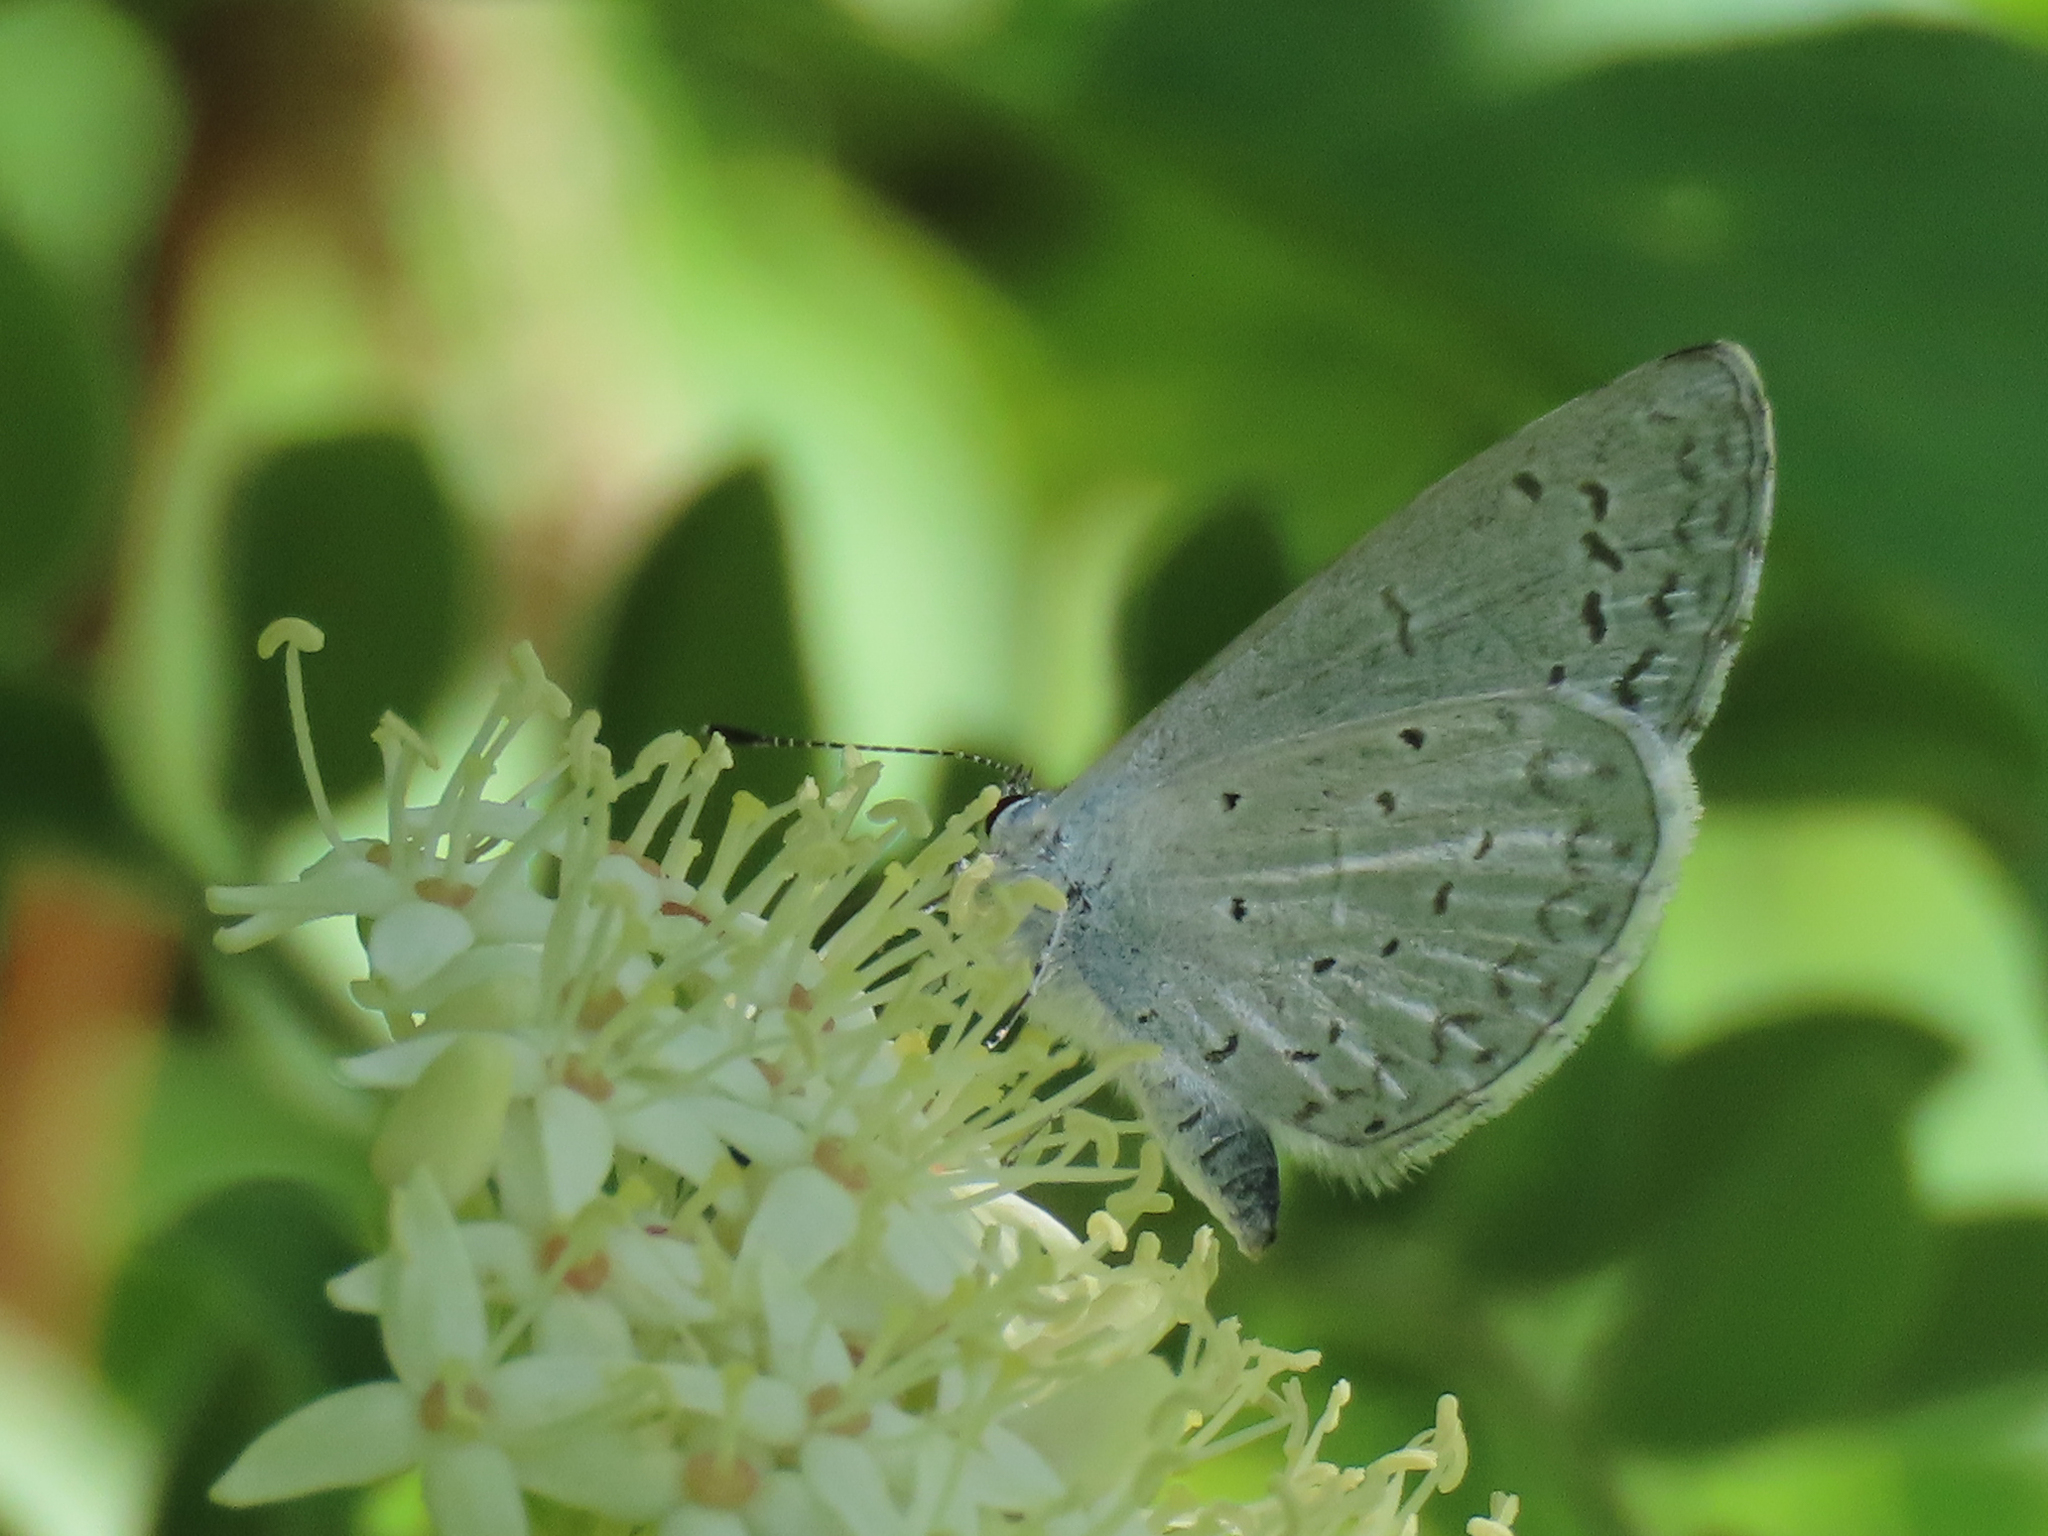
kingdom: Animalia
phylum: Arthropoda
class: Insecta
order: Lepidoptera
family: Lycaenidae
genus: Celastrina
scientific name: Celastrina ladon
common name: Spring azure
